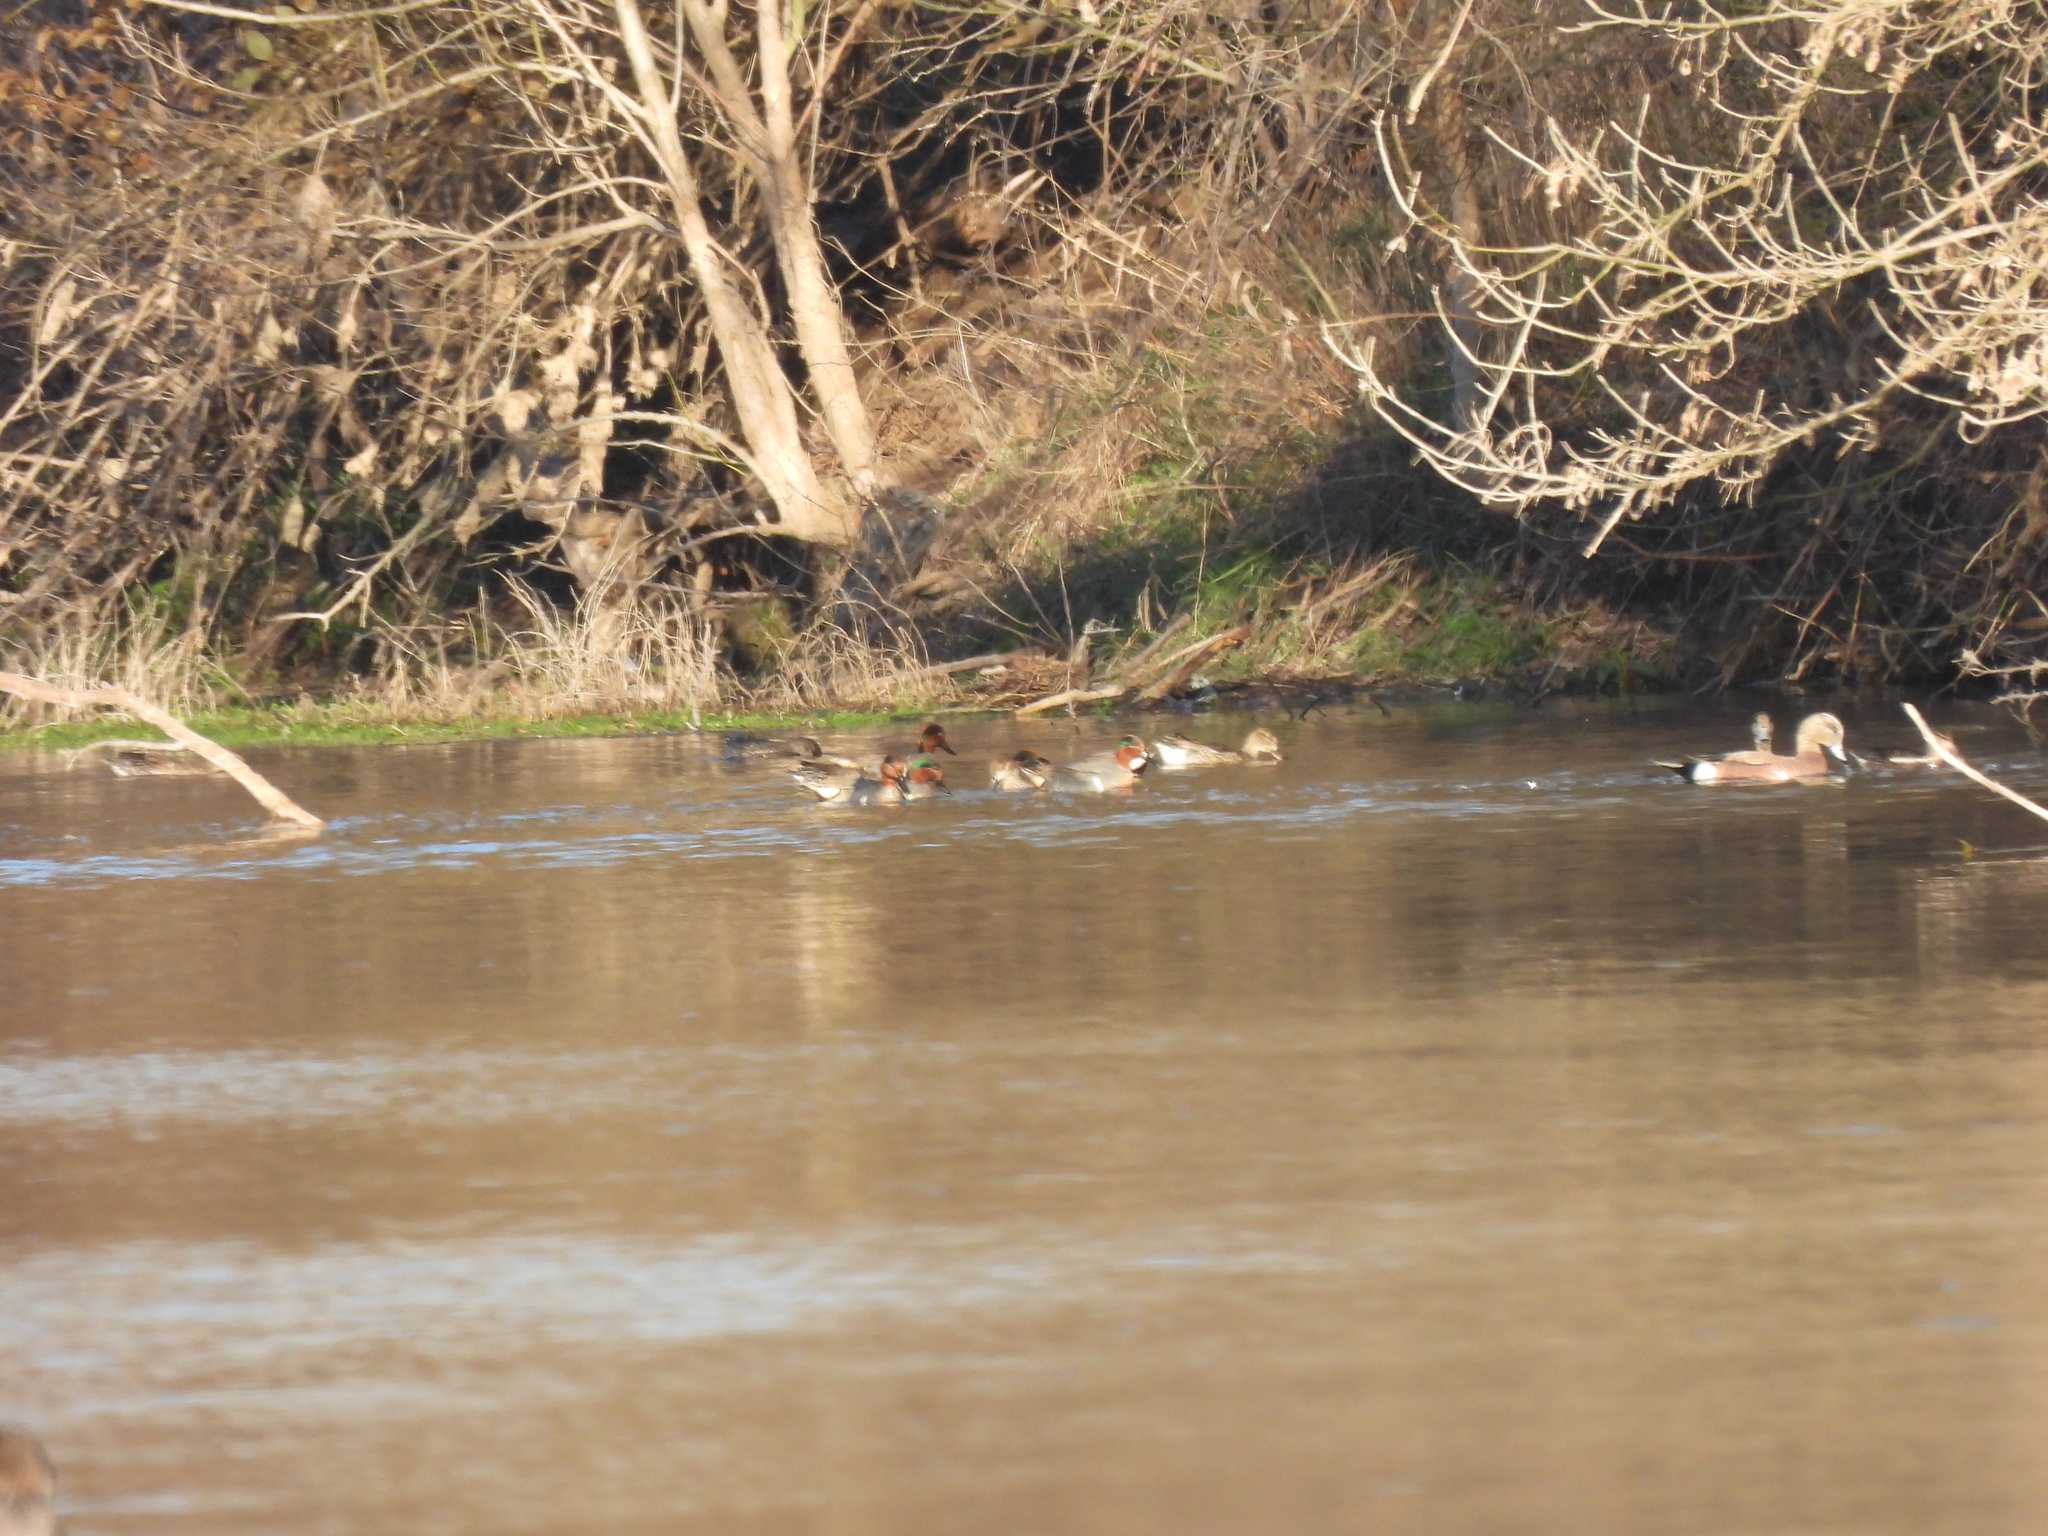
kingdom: Animalia
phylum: Chordata
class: Aves
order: Anseriformes
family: Anatidae
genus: Anas
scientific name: Anas crecca
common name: Eurasian teal
